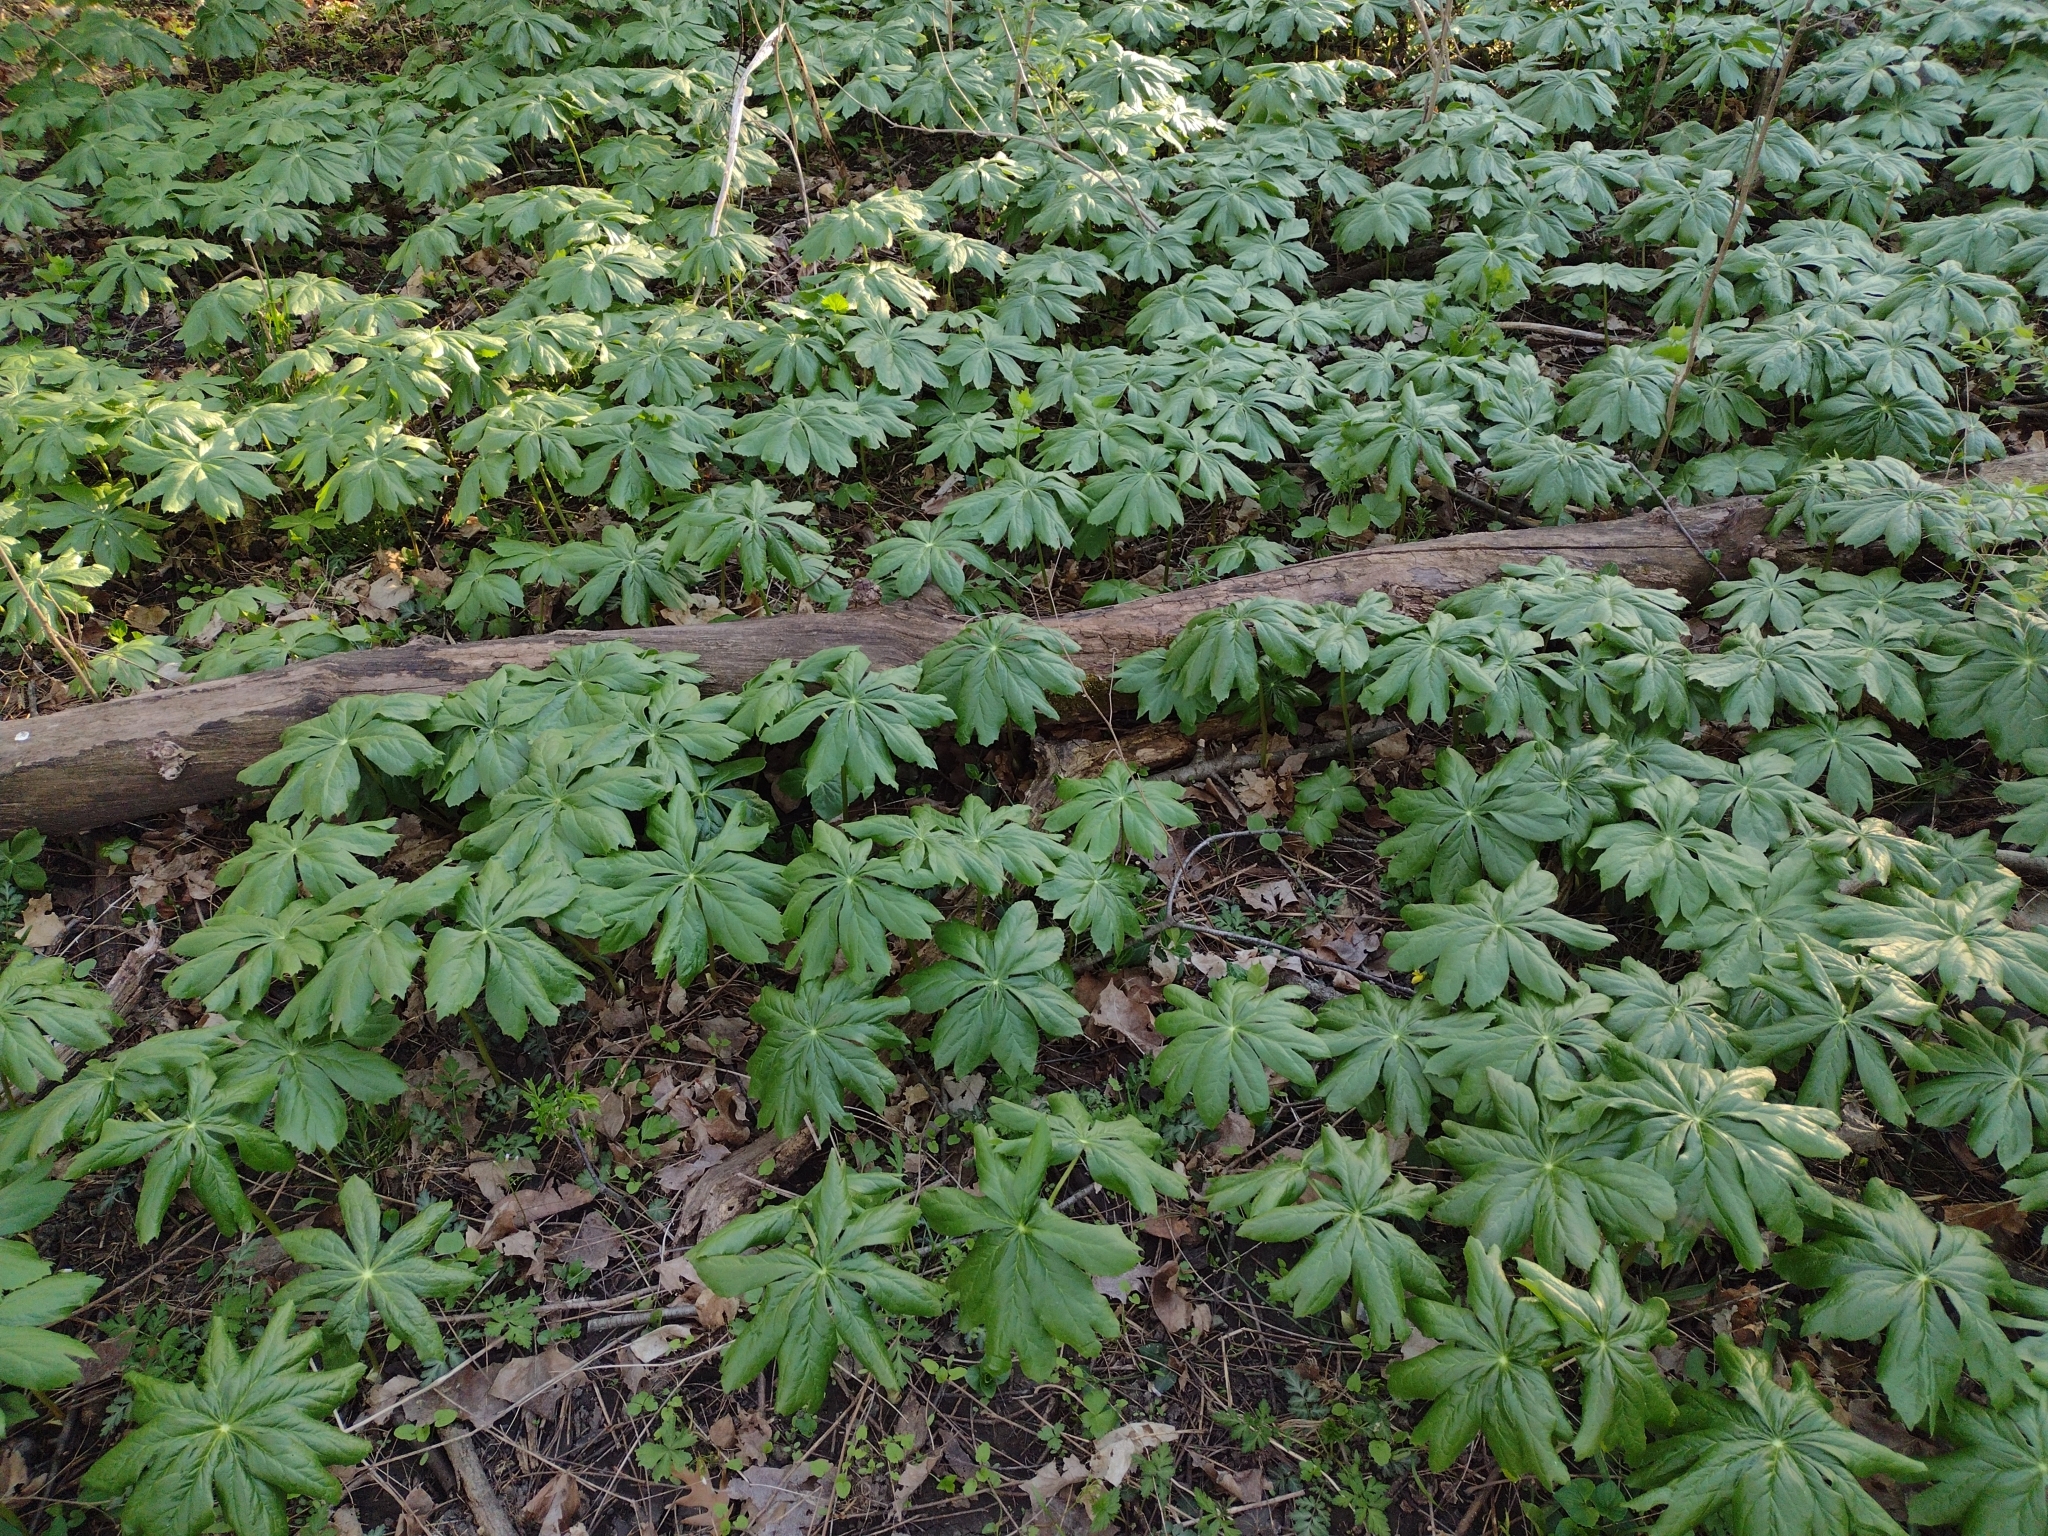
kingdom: Plantae
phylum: Tracheophyta
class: Magnoliopsida
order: Ranunculales
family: Berberidaceae
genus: Podophyllum
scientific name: Podophyllum peltatum
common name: Wild mandrake
